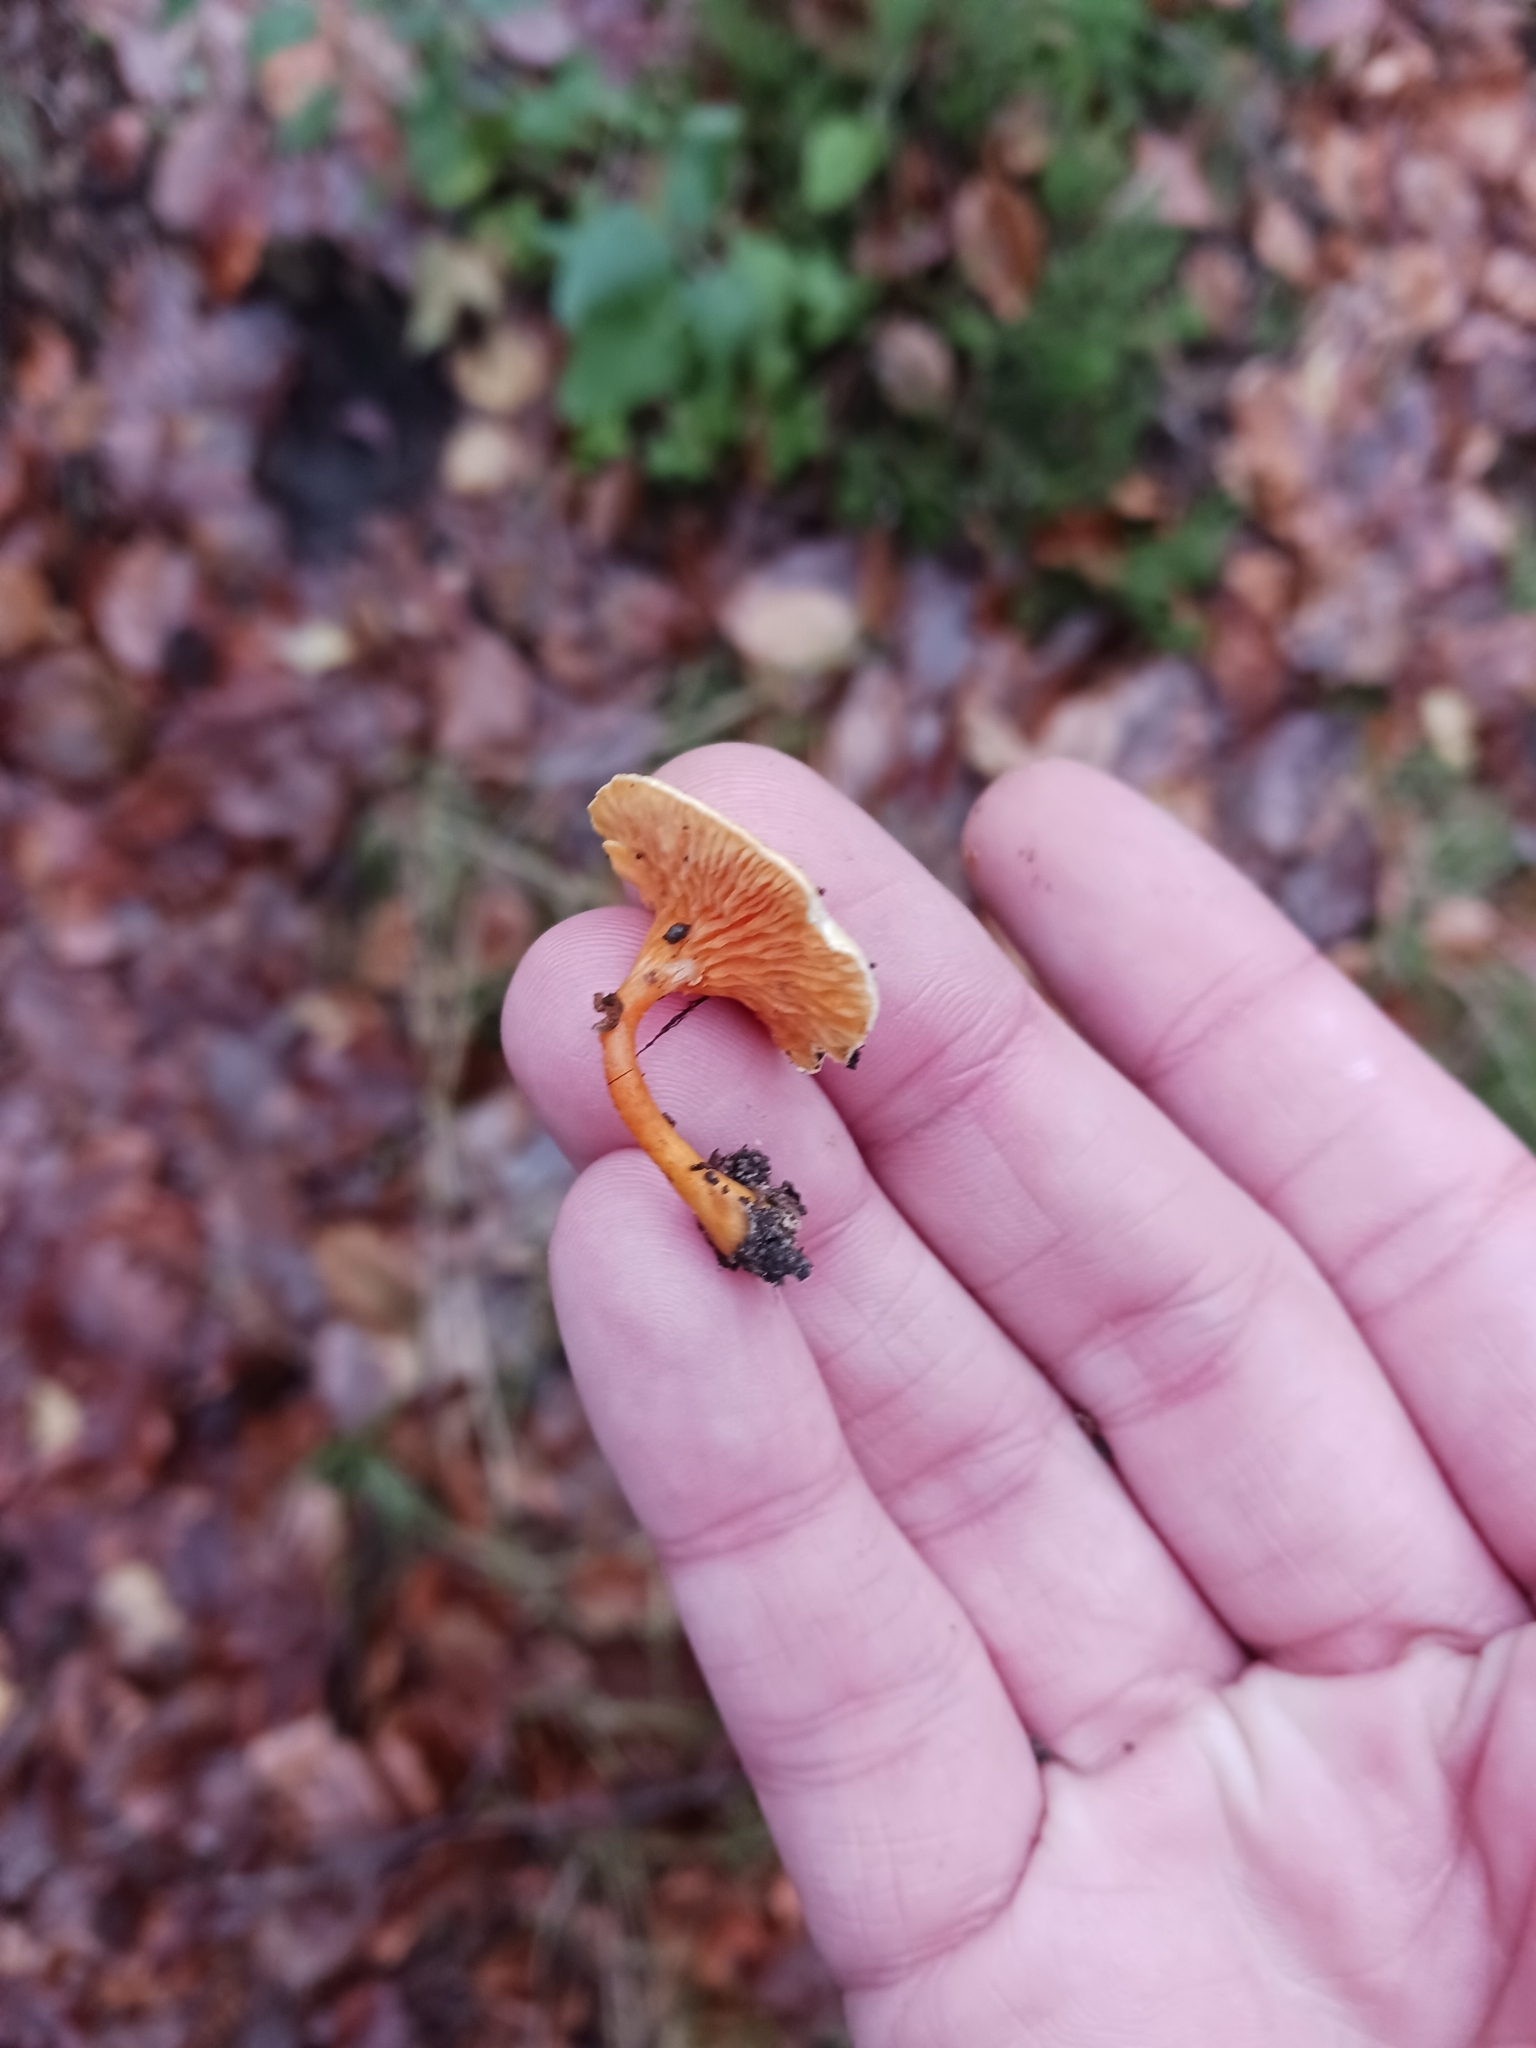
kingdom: Fungi
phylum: Basidiomycota
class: Agaricomycetes
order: Boletales
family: Hygrophoropsidaceae
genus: Hygrophoropsis
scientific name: Hygrophoropsis aurantiaca
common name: False chanterelle
